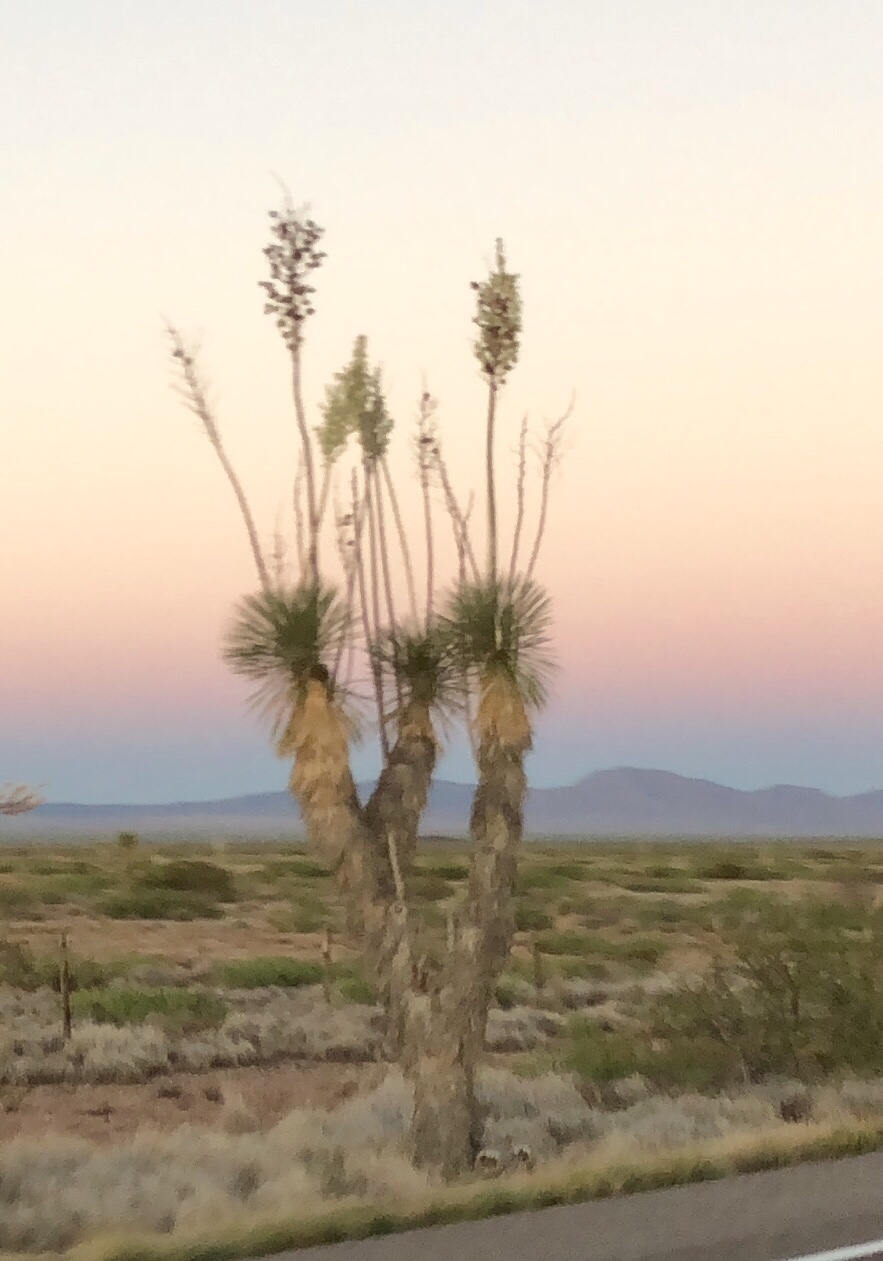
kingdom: Plantae
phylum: Tracheophyta
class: Liliopsida
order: Asparagales
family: Asparagaceae
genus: Yucca
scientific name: Yucca elata
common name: Palmella
